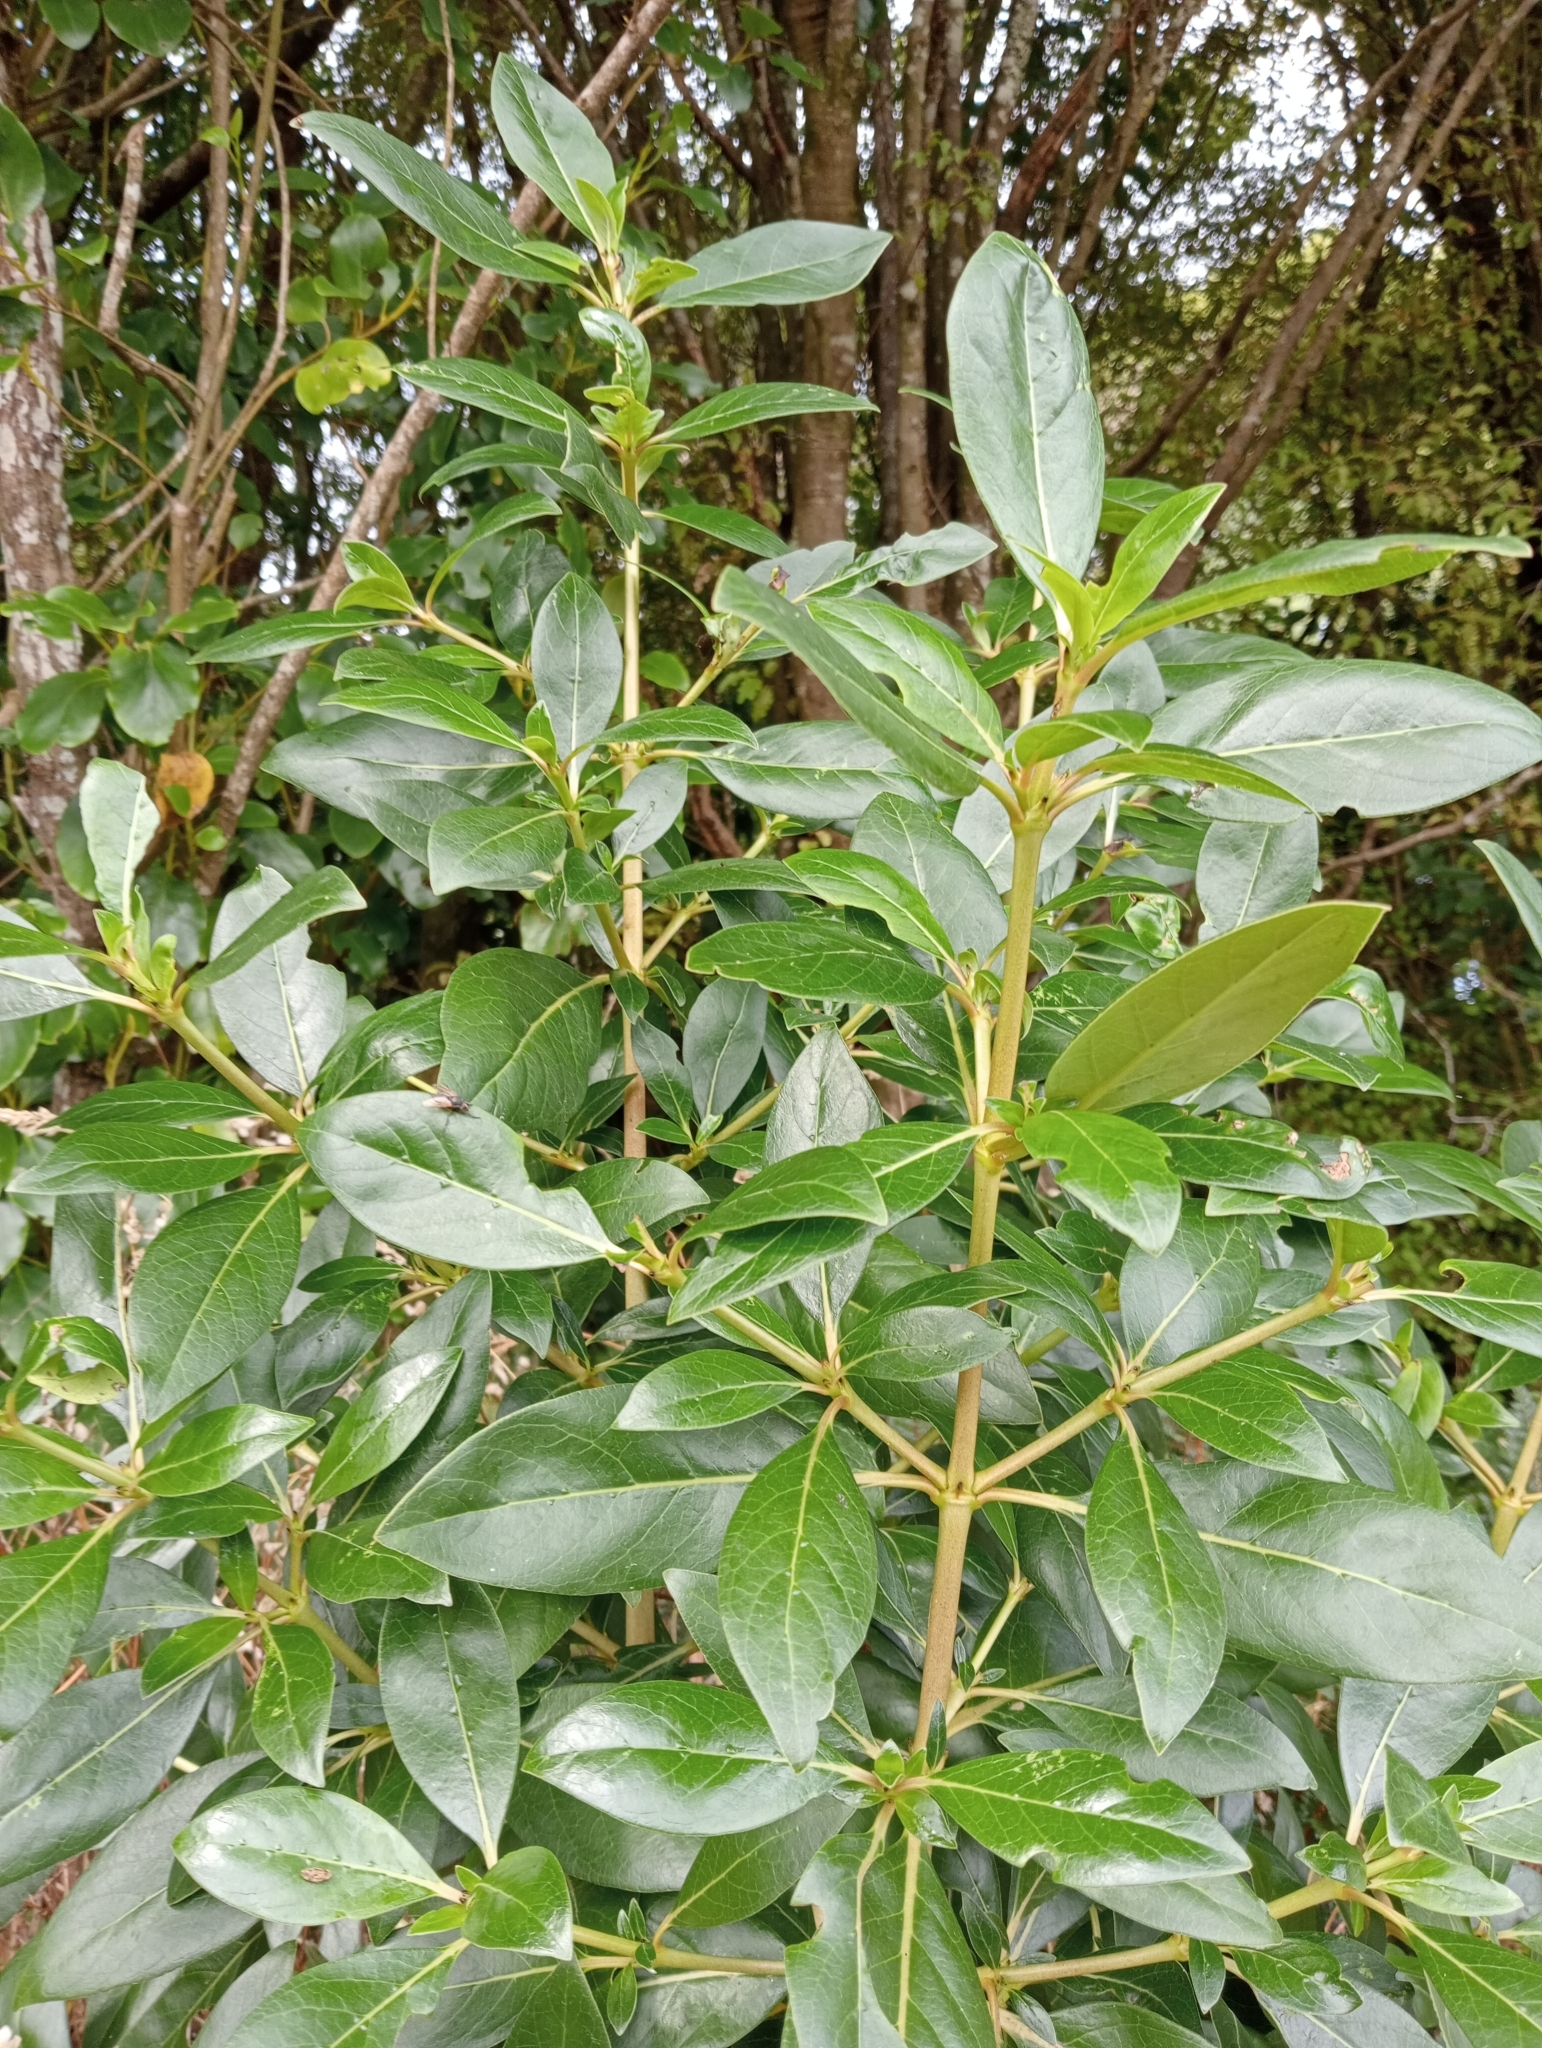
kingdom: Plantae
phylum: Tracheophyta
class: Magnoliopsida
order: Gentianales
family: Rubiaceae
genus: Coprosma
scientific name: Coprosma robusta
